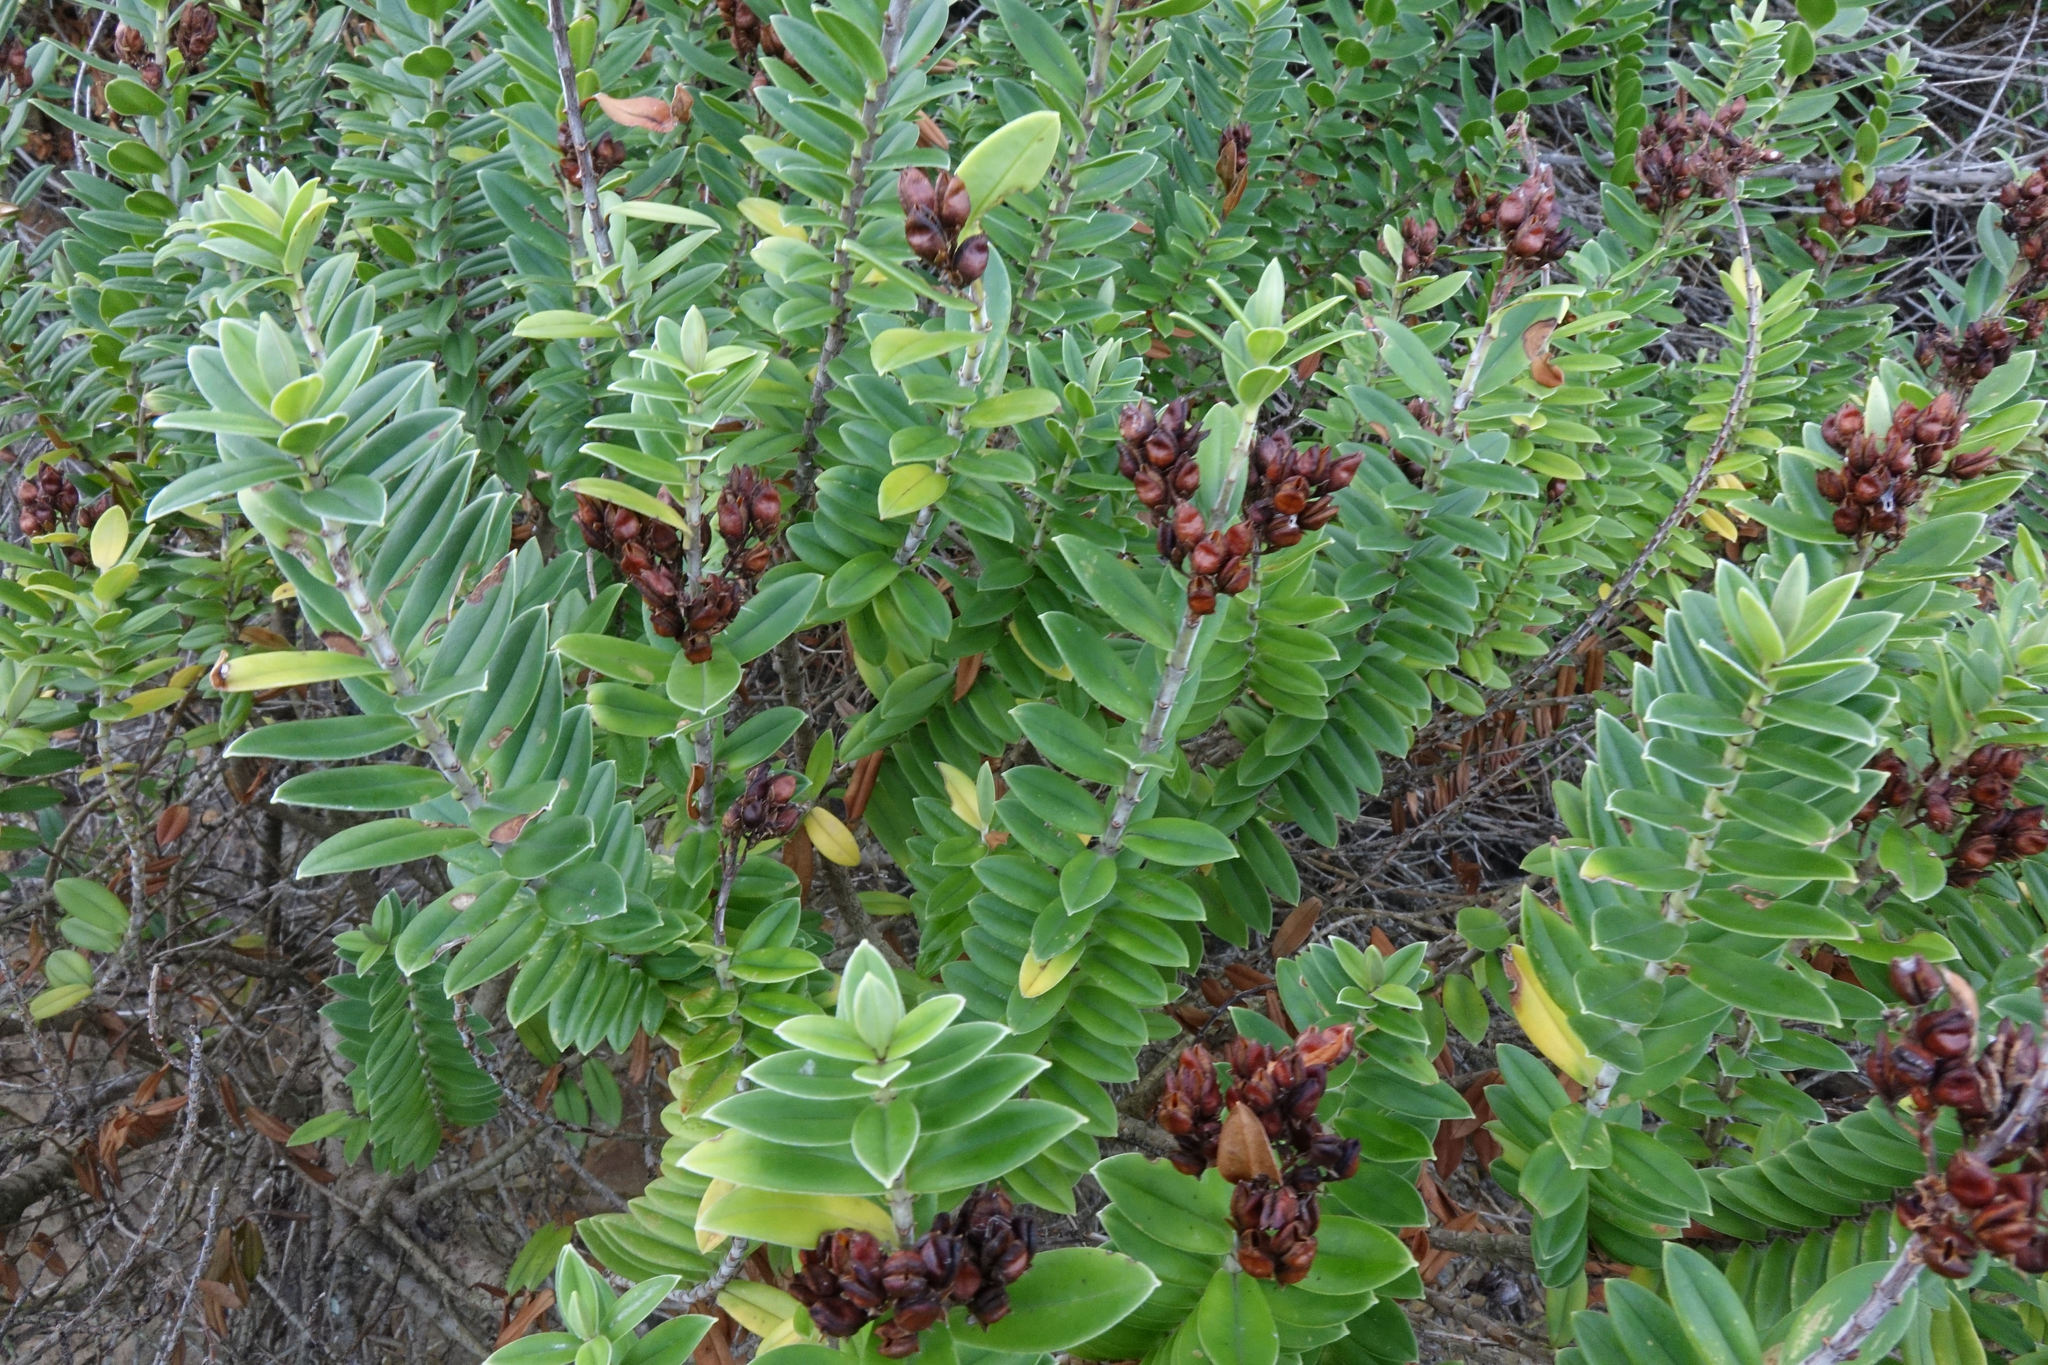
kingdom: Plantae
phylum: Tracheophyta
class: Magnoliopsida
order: Lamiales
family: Plantaginaceae
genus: Veronica
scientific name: Veronica elliptica
